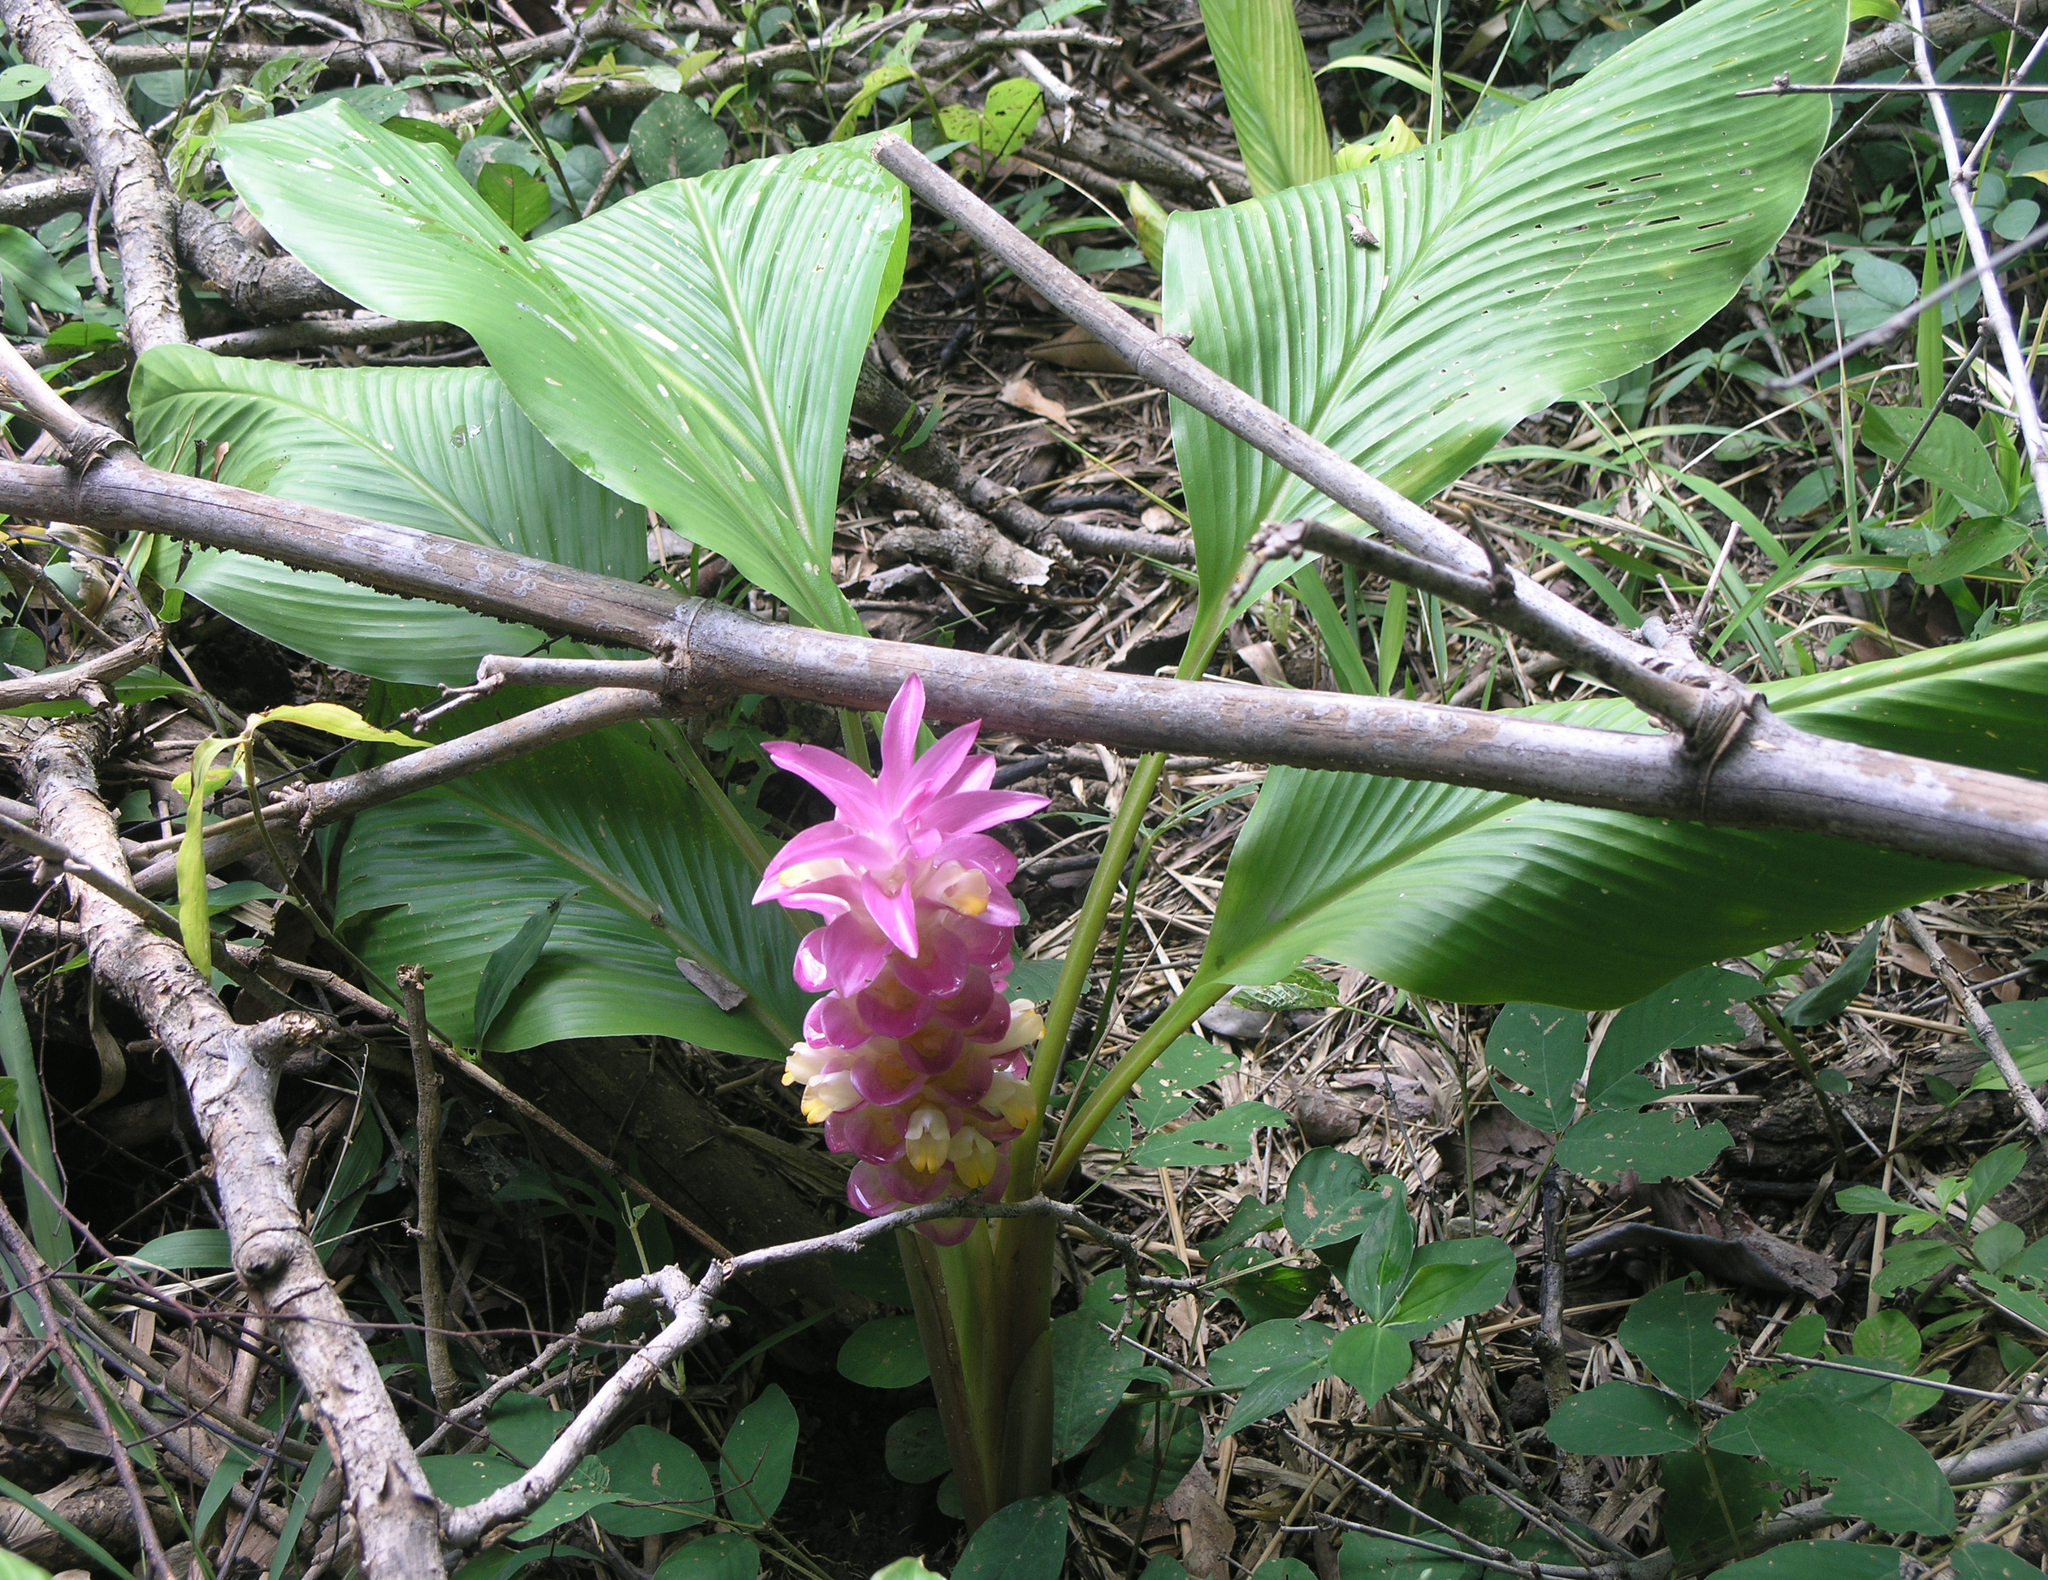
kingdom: Plantae
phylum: Tracheophyta
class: Liliopsida
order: Zingiberales
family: Zingiberaceae
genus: Curcuma
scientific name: Curcuma petiolata
